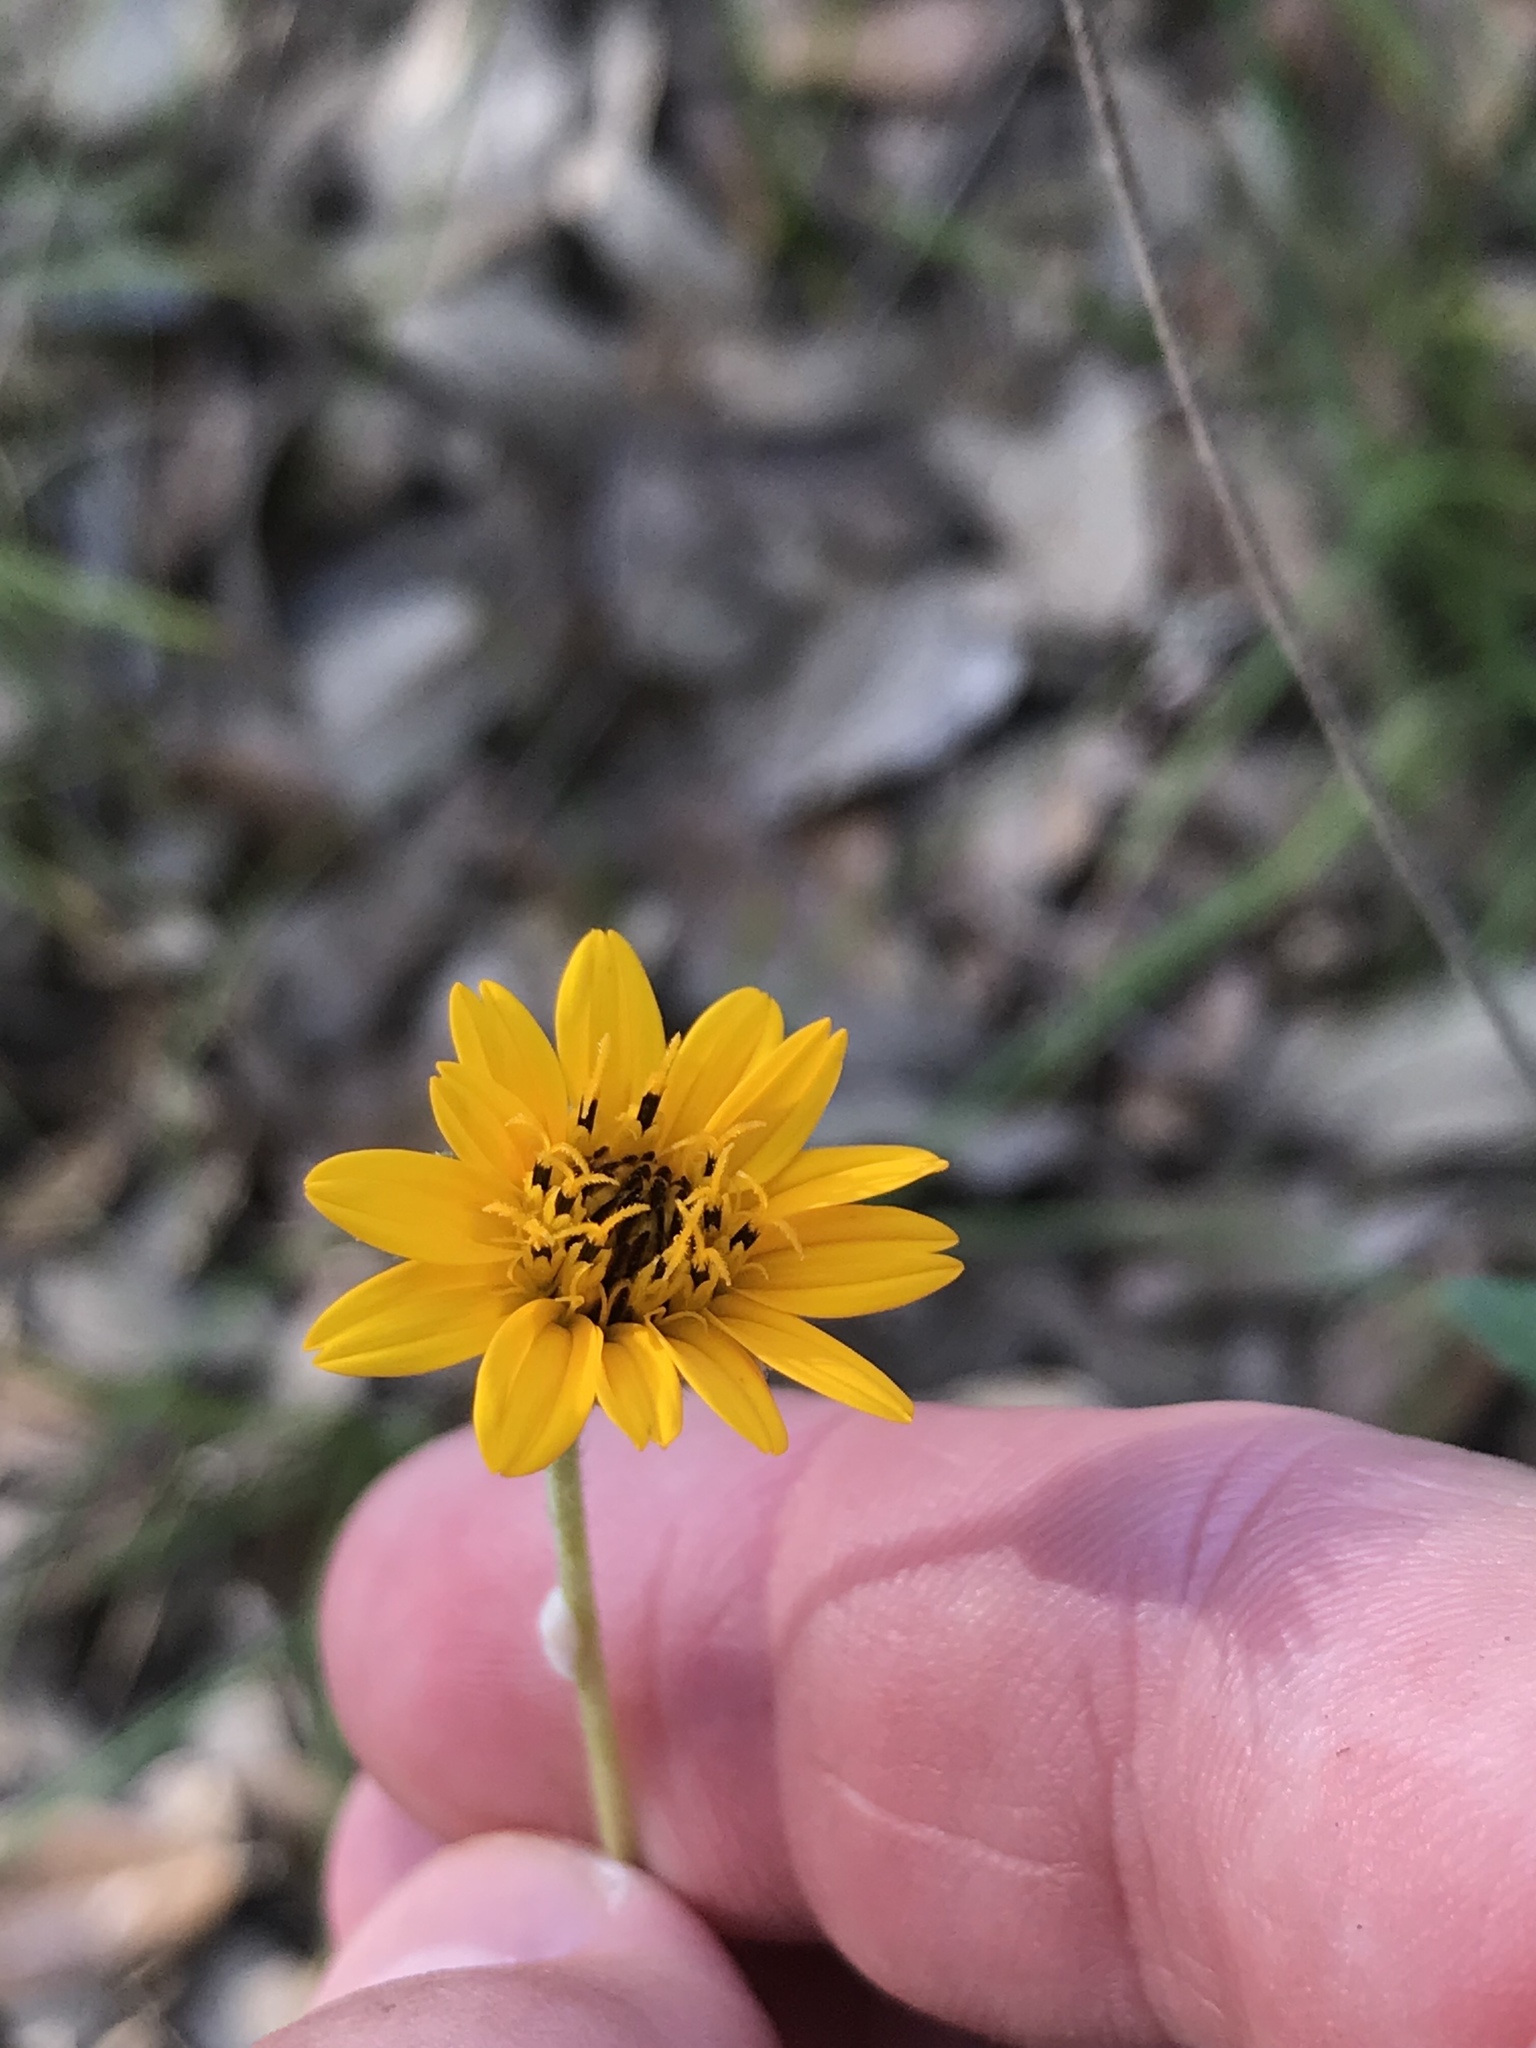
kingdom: Plantae
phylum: Tracheophyta
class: Magnoliopsida
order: Asterales
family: Asteraceae
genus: Wedelia
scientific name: Wedelia acapulcensis
